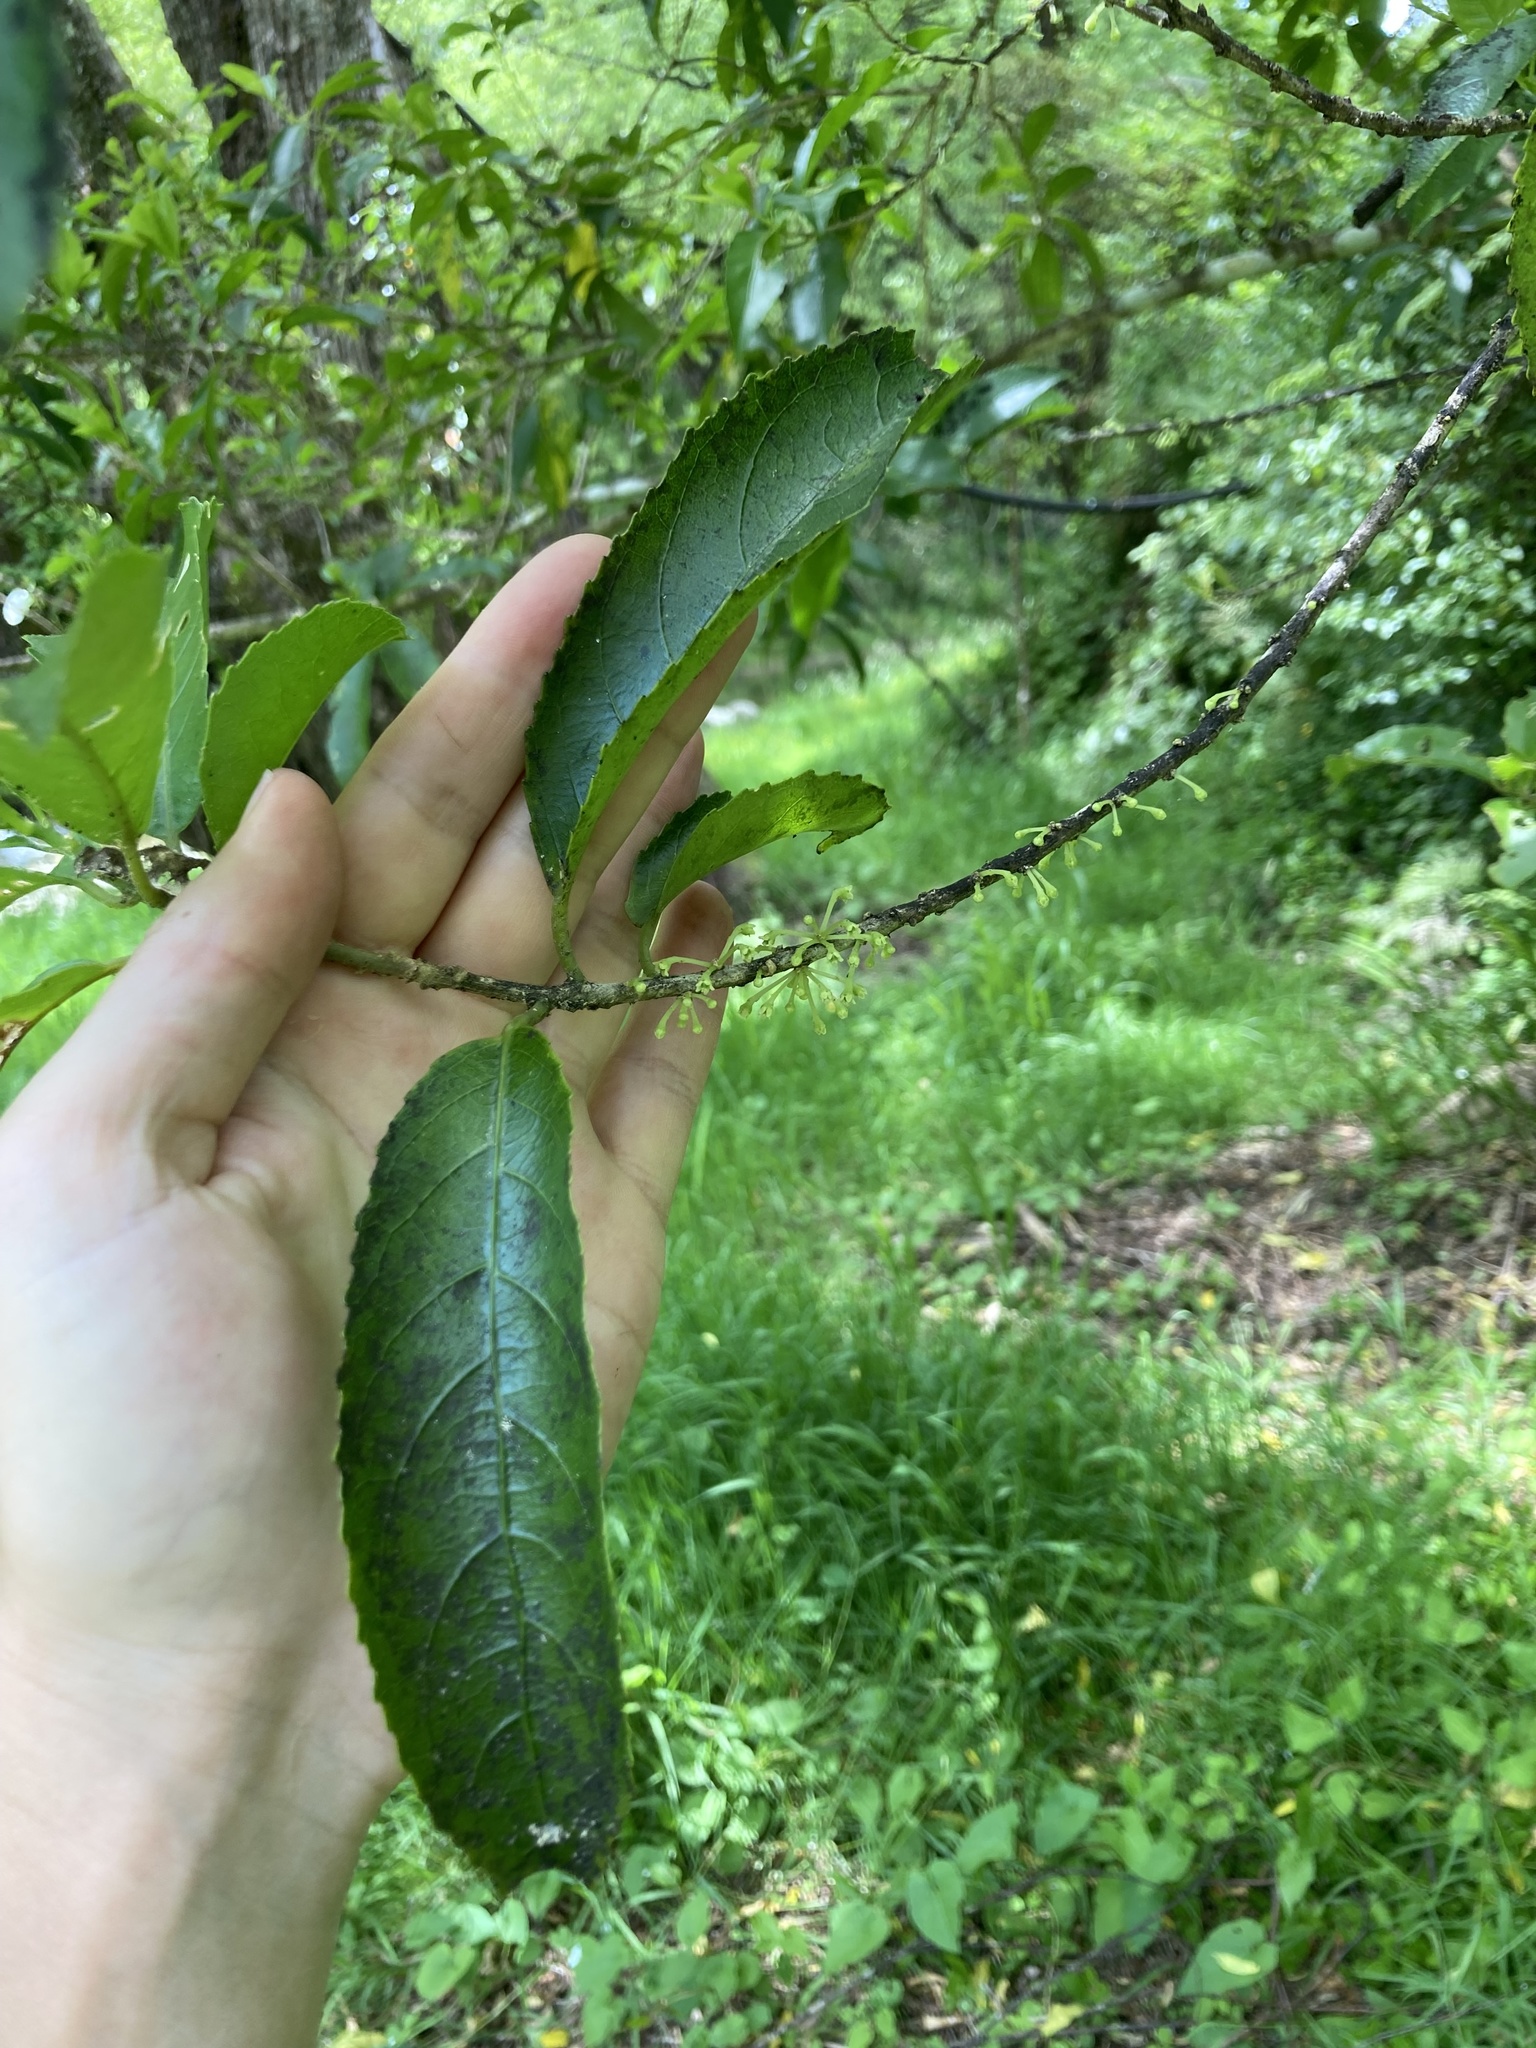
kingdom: Plantae
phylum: Tracheophyta
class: Magnoliopsida
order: Malpighiales
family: Violaceae
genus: Melicytus
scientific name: Melicytus ramiflorus
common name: Mahoe
